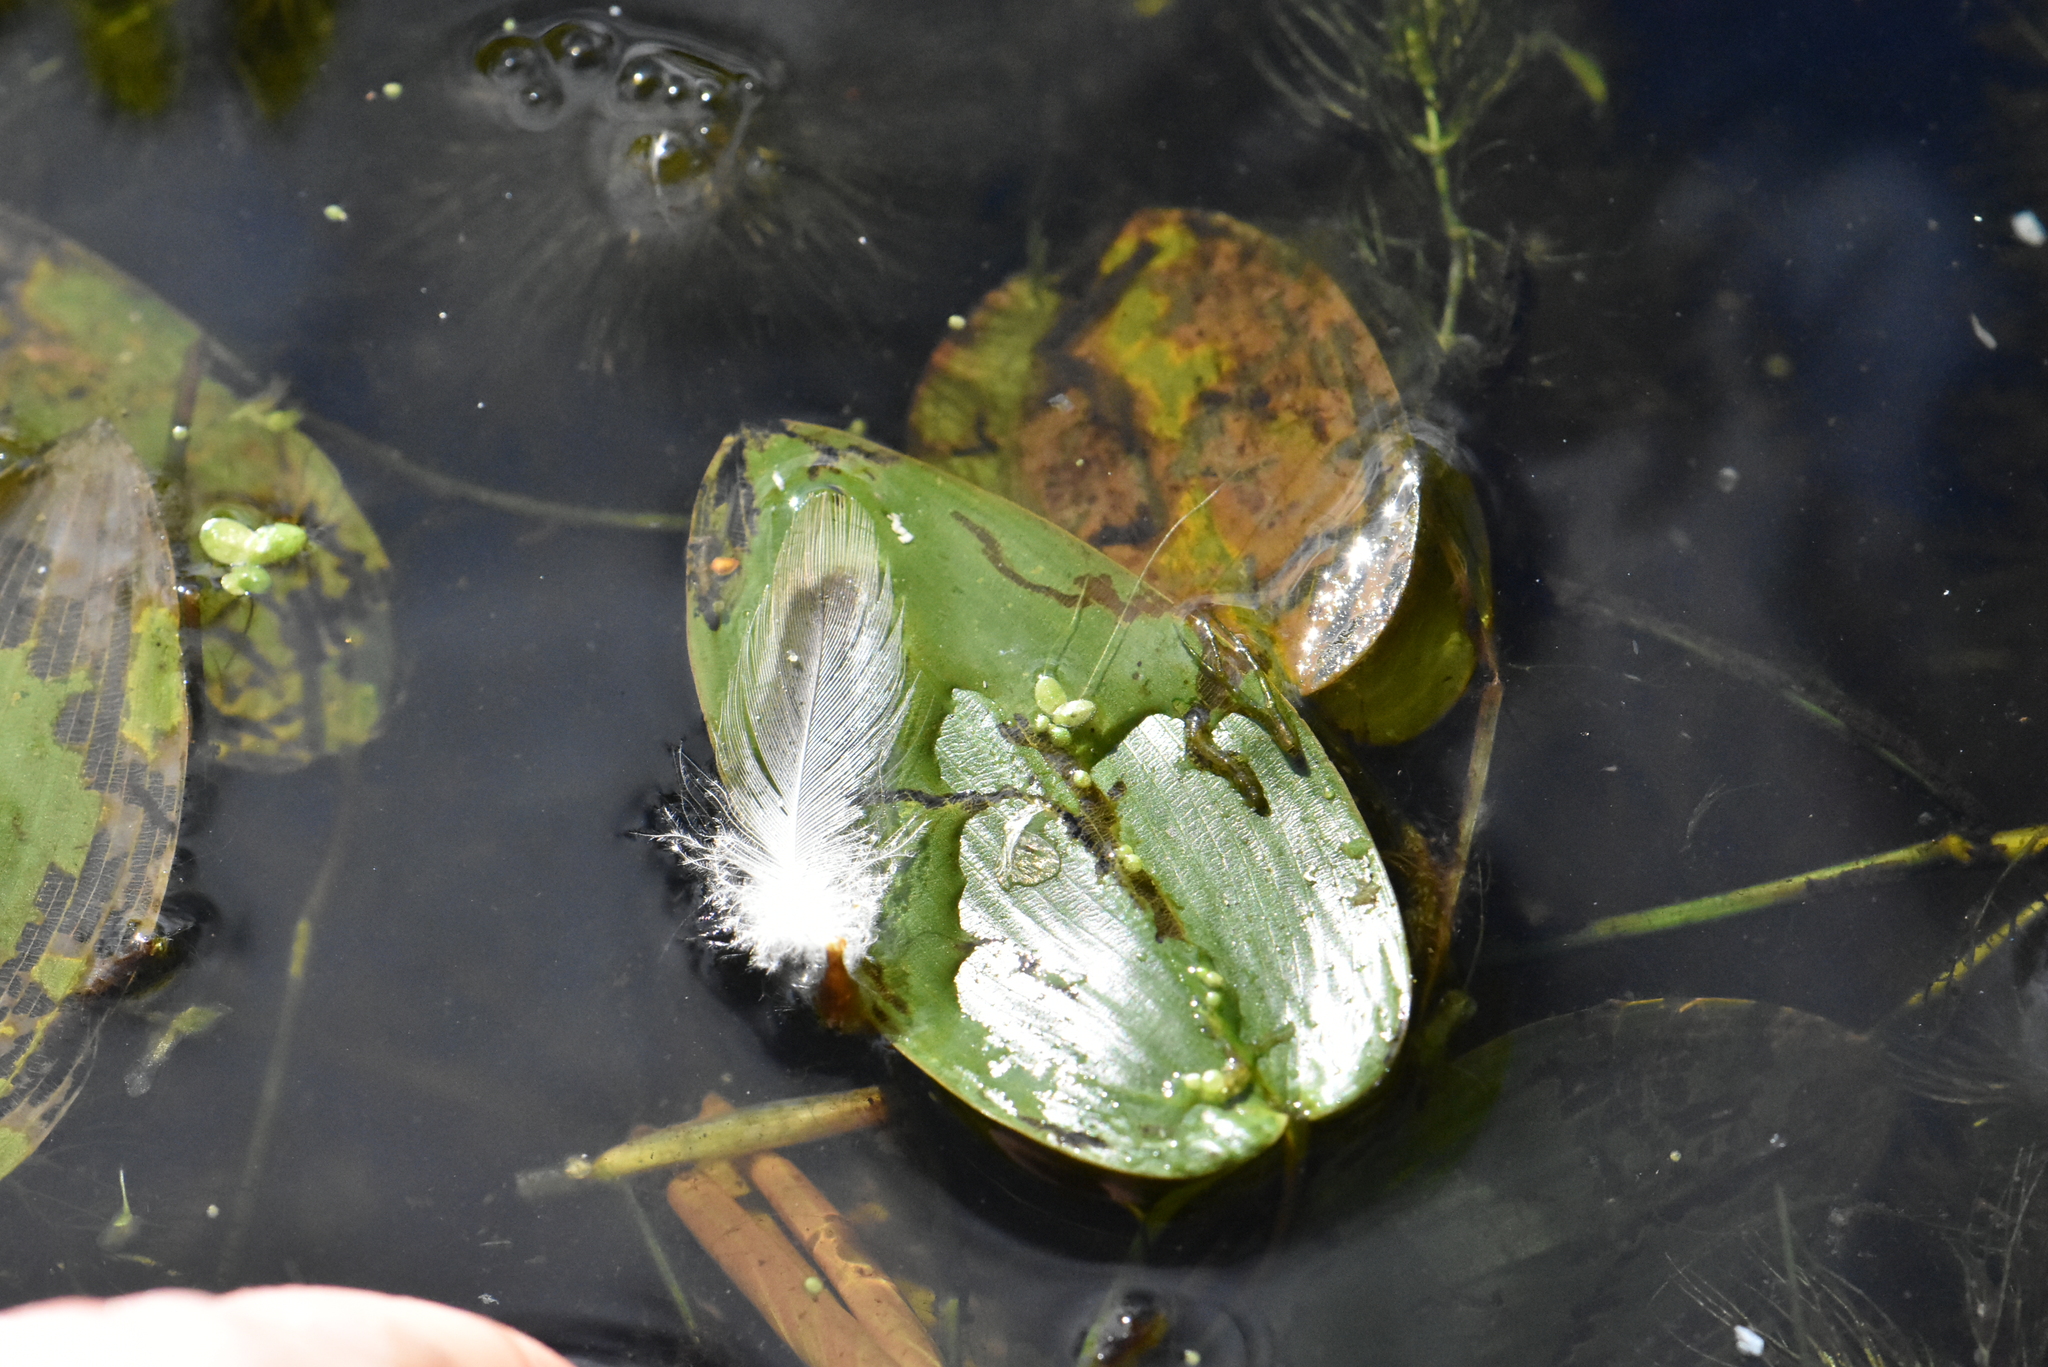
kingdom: Plantae
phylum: Tracheophyta
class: Liliopsida
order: Alismatales
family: Potamogetonaceae
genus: Potamogeton
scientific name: Potamogeton natans
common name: Broad-leaved pondweed
